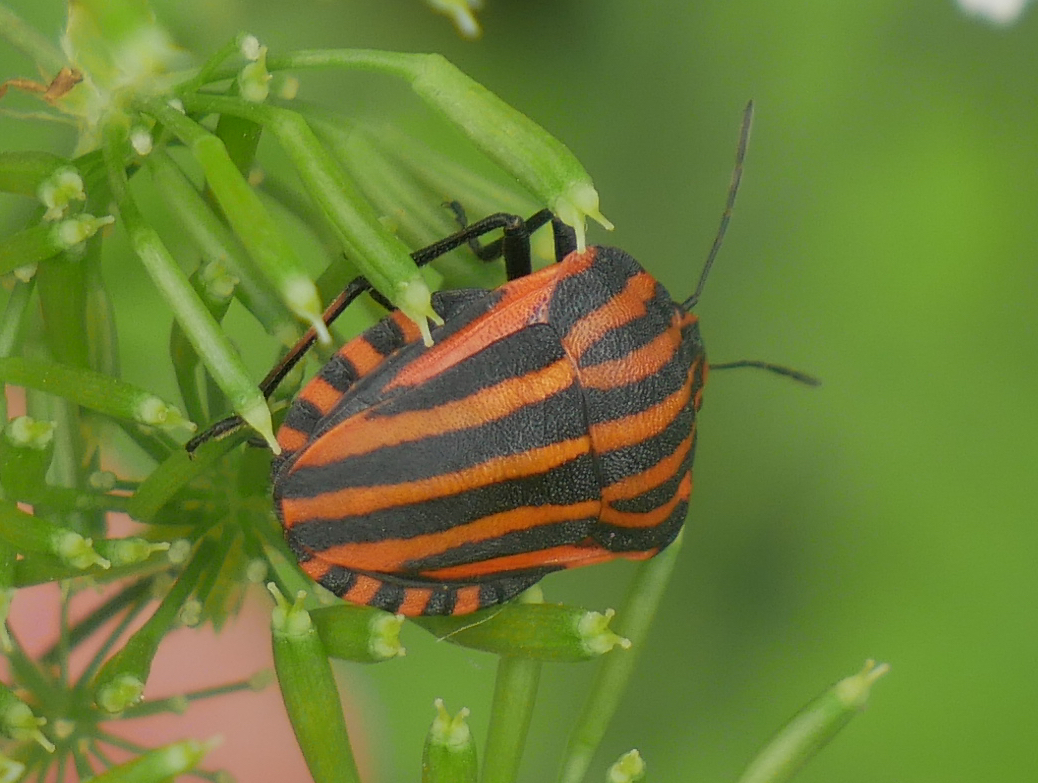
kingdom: Animalia
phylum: Arthropoda
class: Insecta
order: Hemiptera
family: Pentatomidae
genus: Graphosoma
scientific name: Graphosoma italicum
